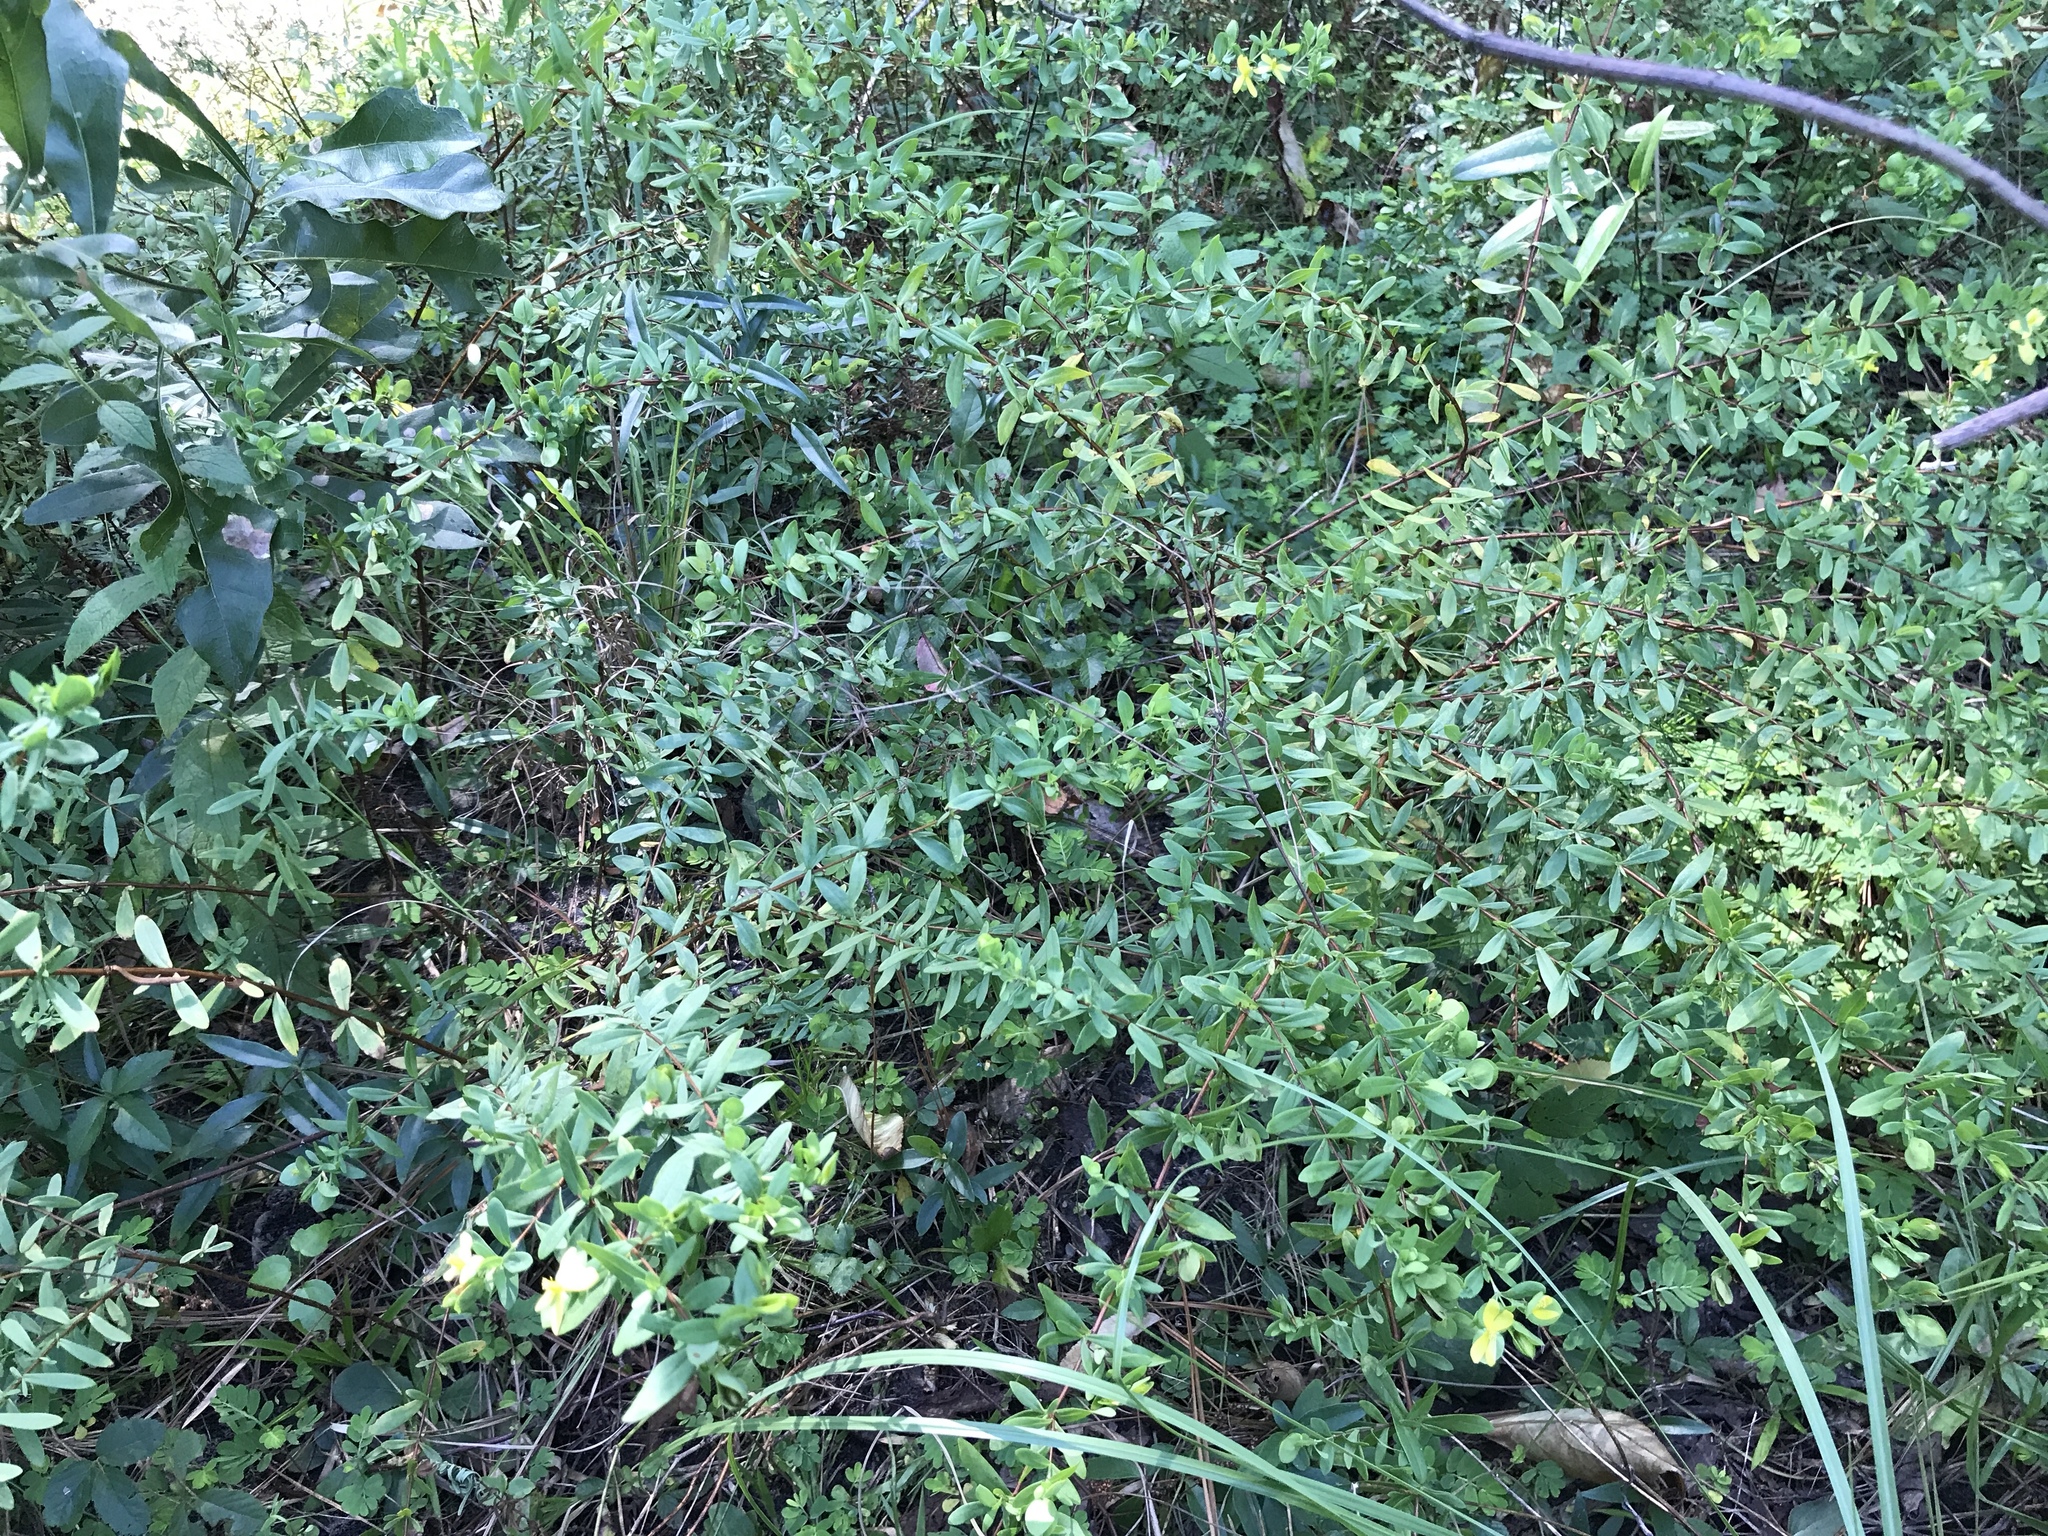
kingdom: Plantae
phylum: Tracheophyta
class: Magnoliopsida
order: Malpighiales
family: Hypericaceae
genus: Hypericum
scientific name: Hypericum hypericoides
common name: St. andrew's cross
